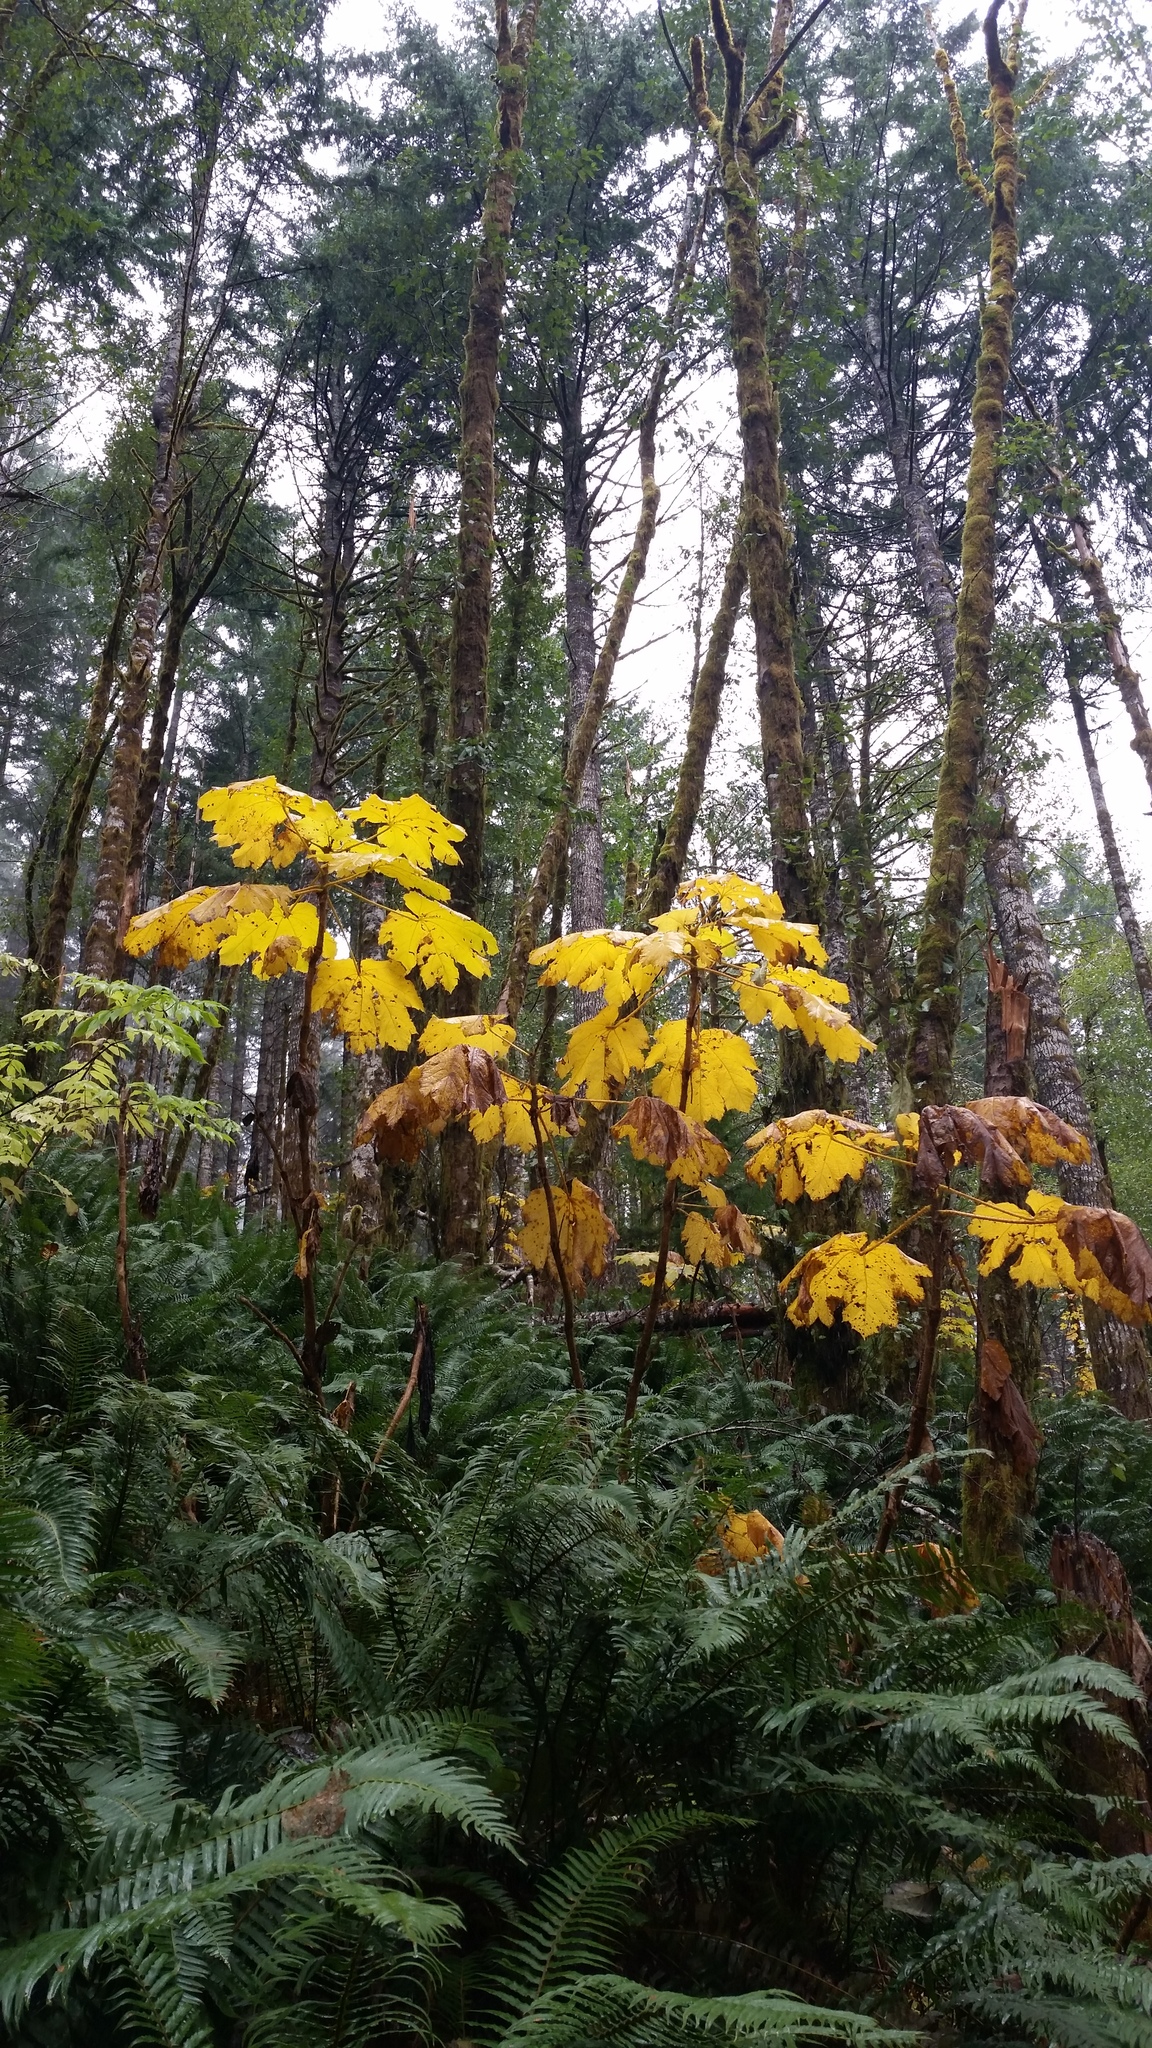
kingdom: Plantae
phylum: Tracheophyta
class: Magnoliopsida
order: Apiales
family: Araliaceae
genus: Oplopanax
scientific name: Oplopanax horridus
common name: Devil's walking-stick
